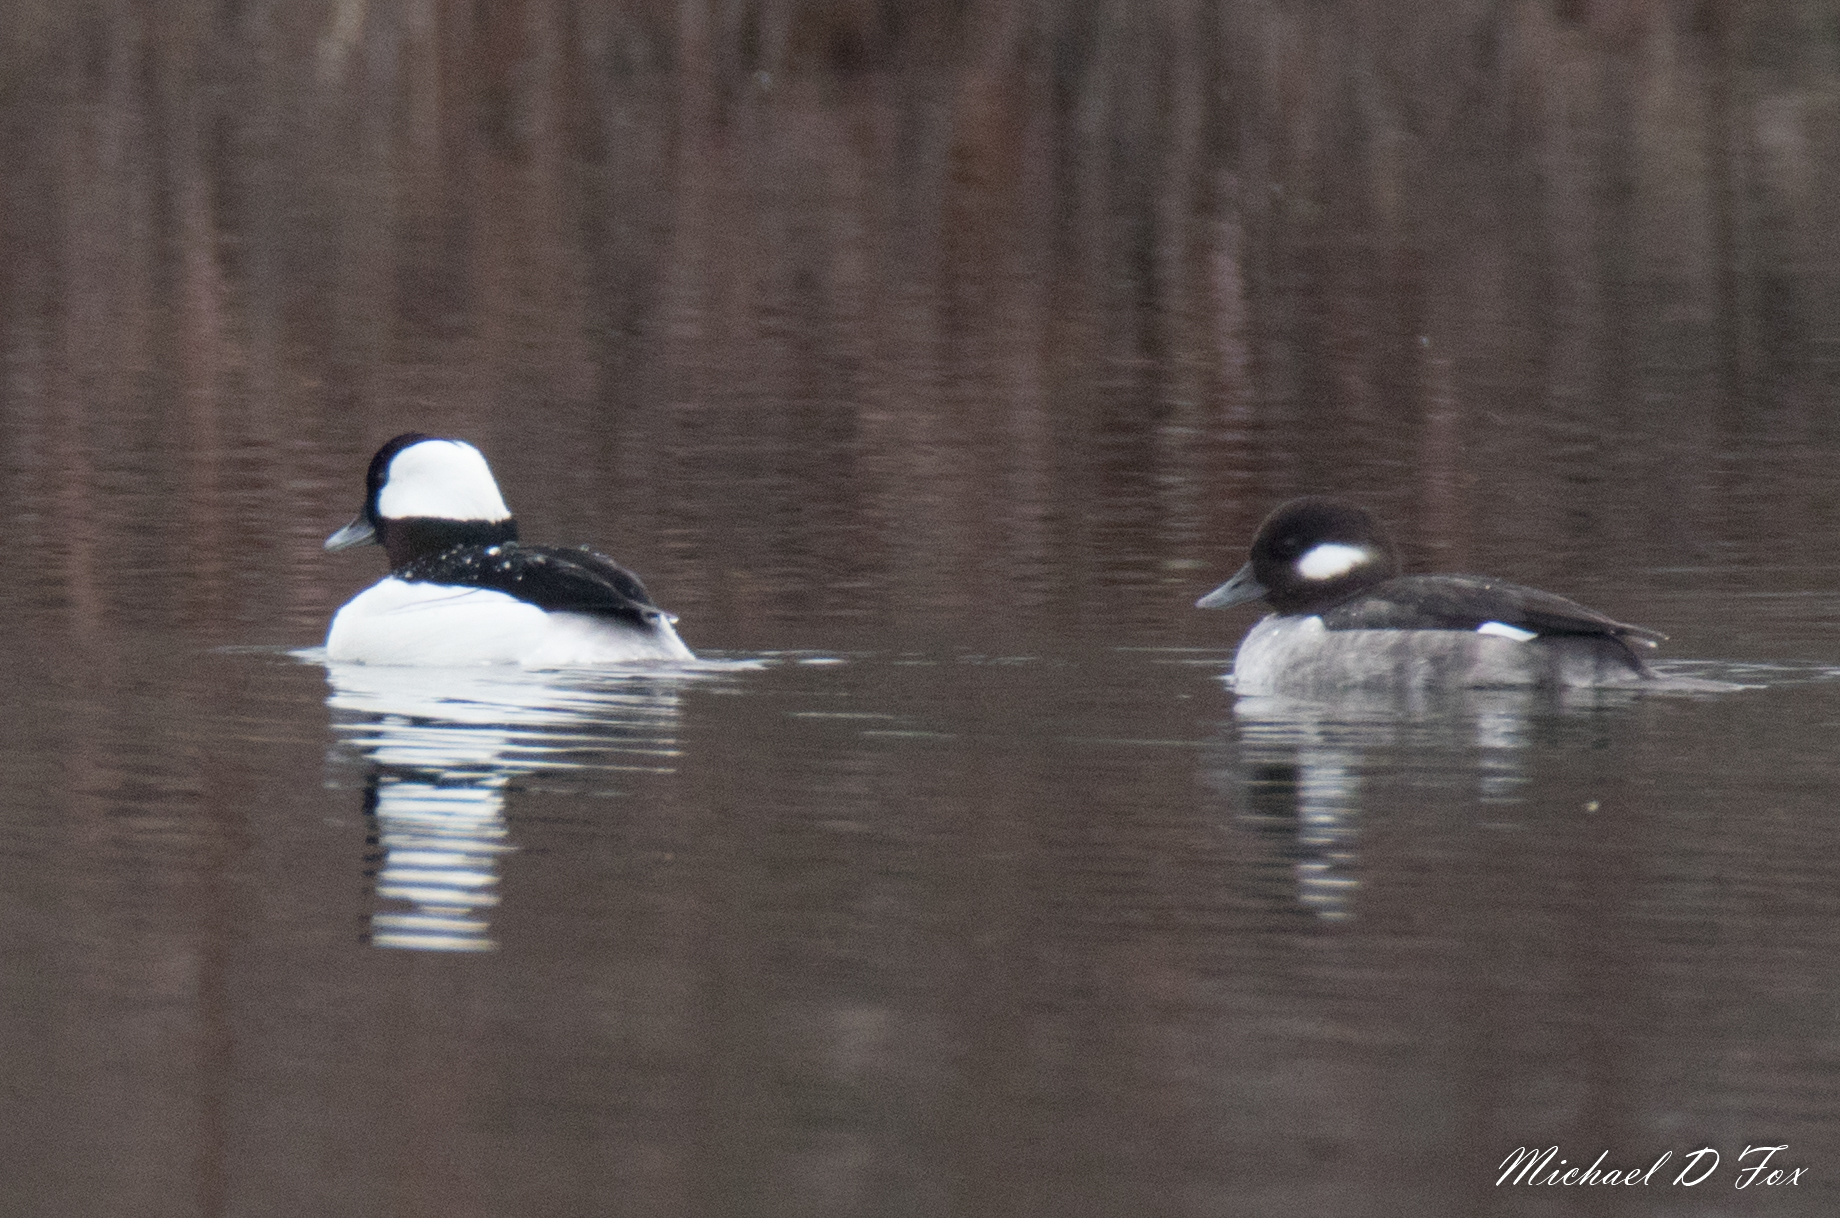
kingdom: Animalia
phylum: Chordata
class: Aves
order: Anseriformes
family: Anatidae
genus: Bucephala
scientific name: Bucephala albeola
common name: Bufflehead
